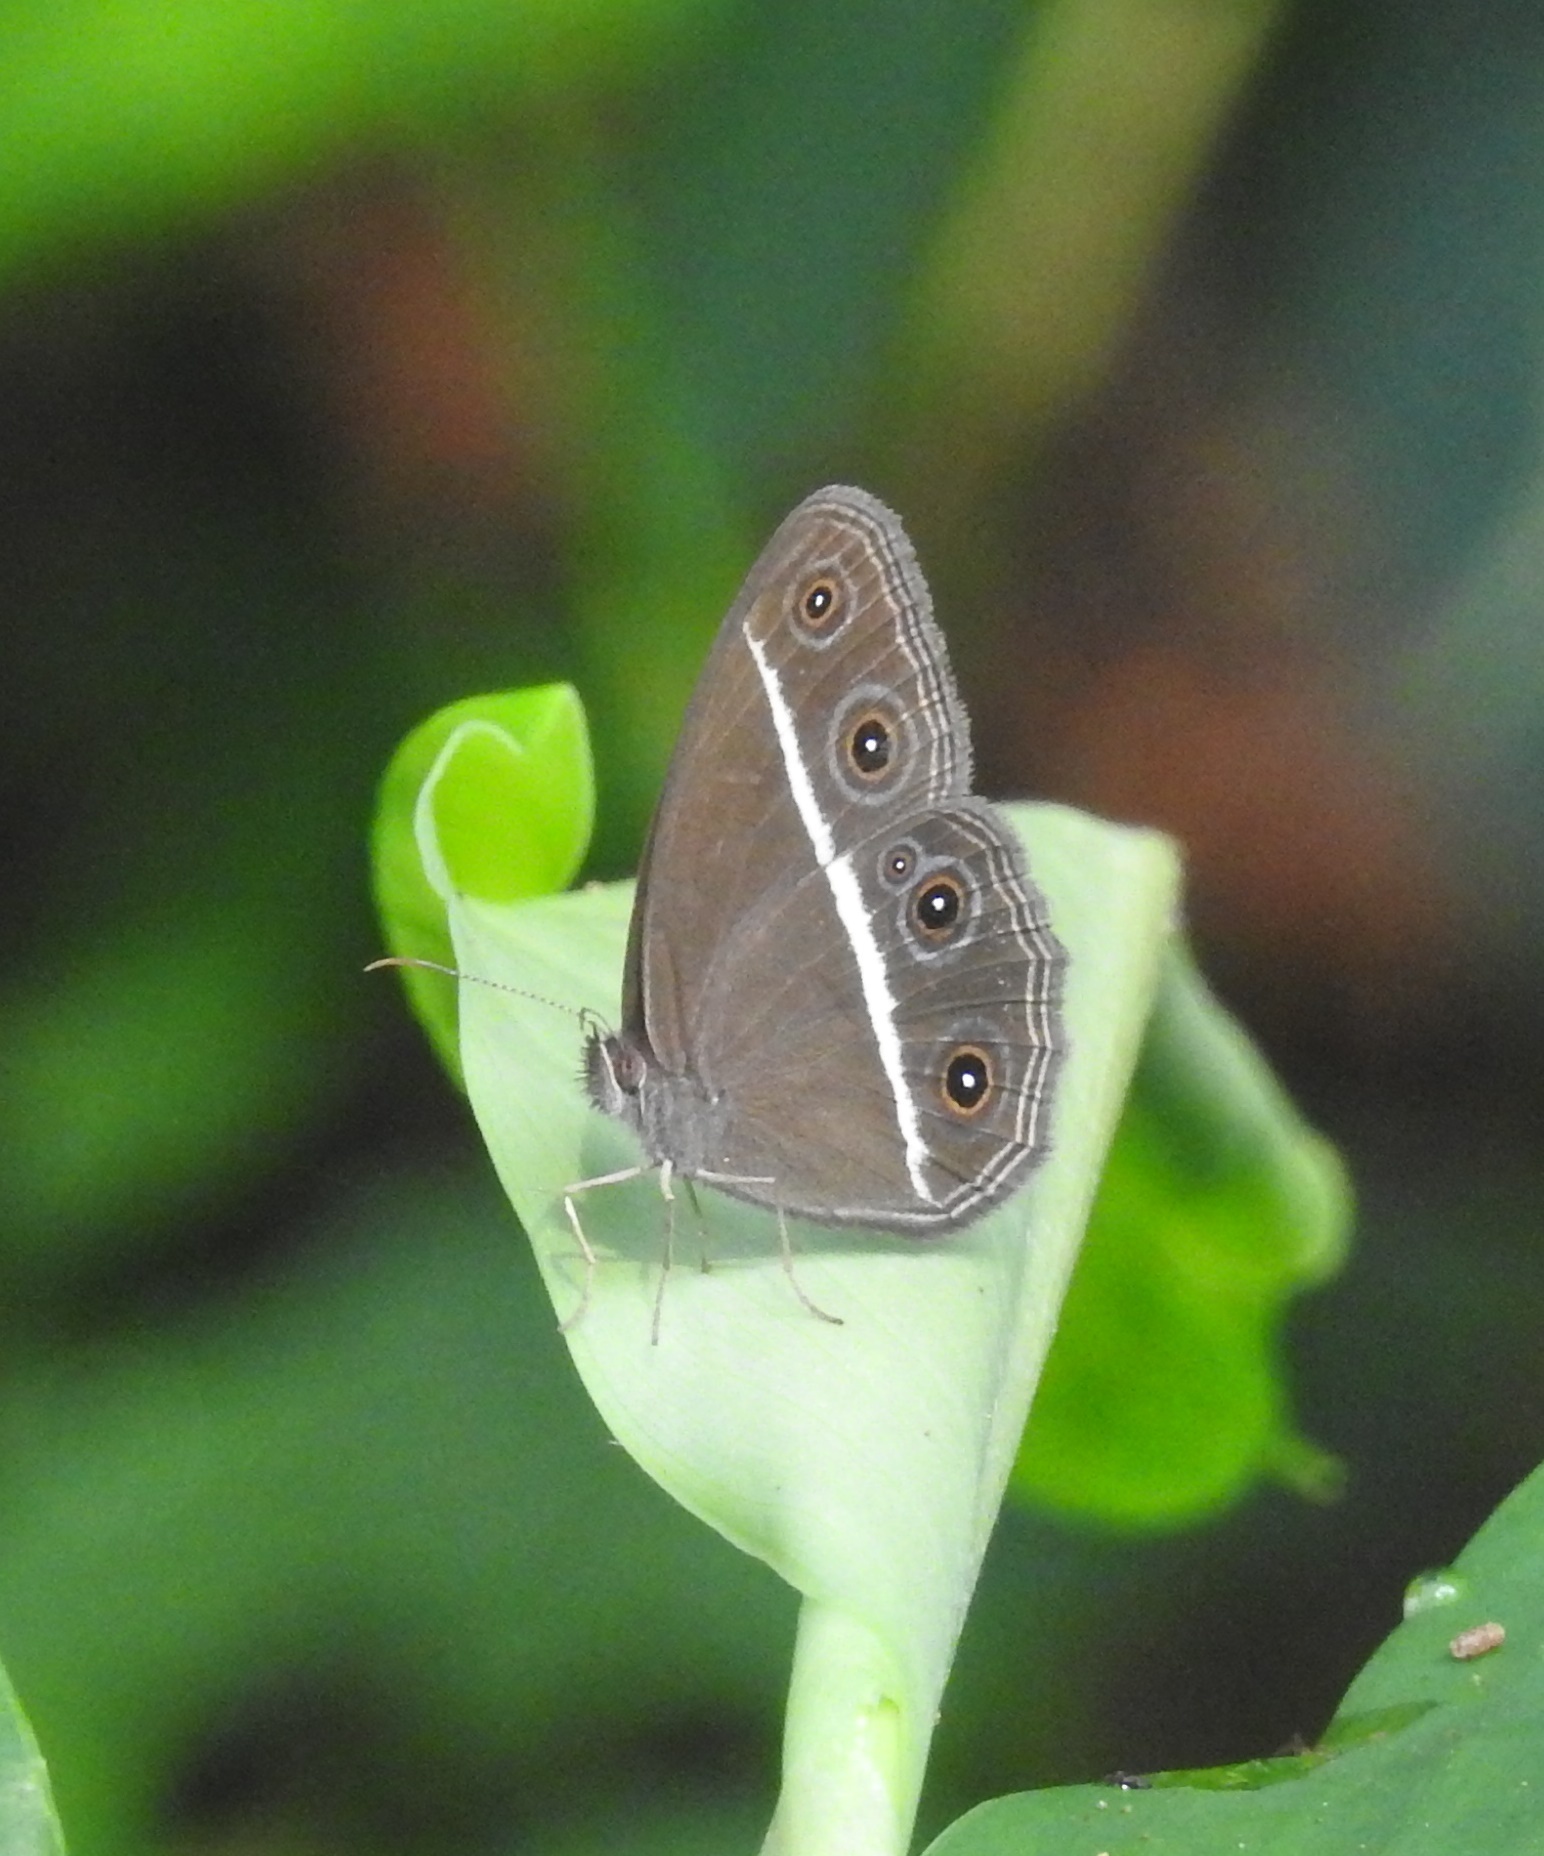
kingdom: Animalia
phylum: Arthropoda
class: Insecta
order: Lepidoptera
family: Nymphalidae
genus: Orsotriaena
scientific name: Orsotriaena medus
